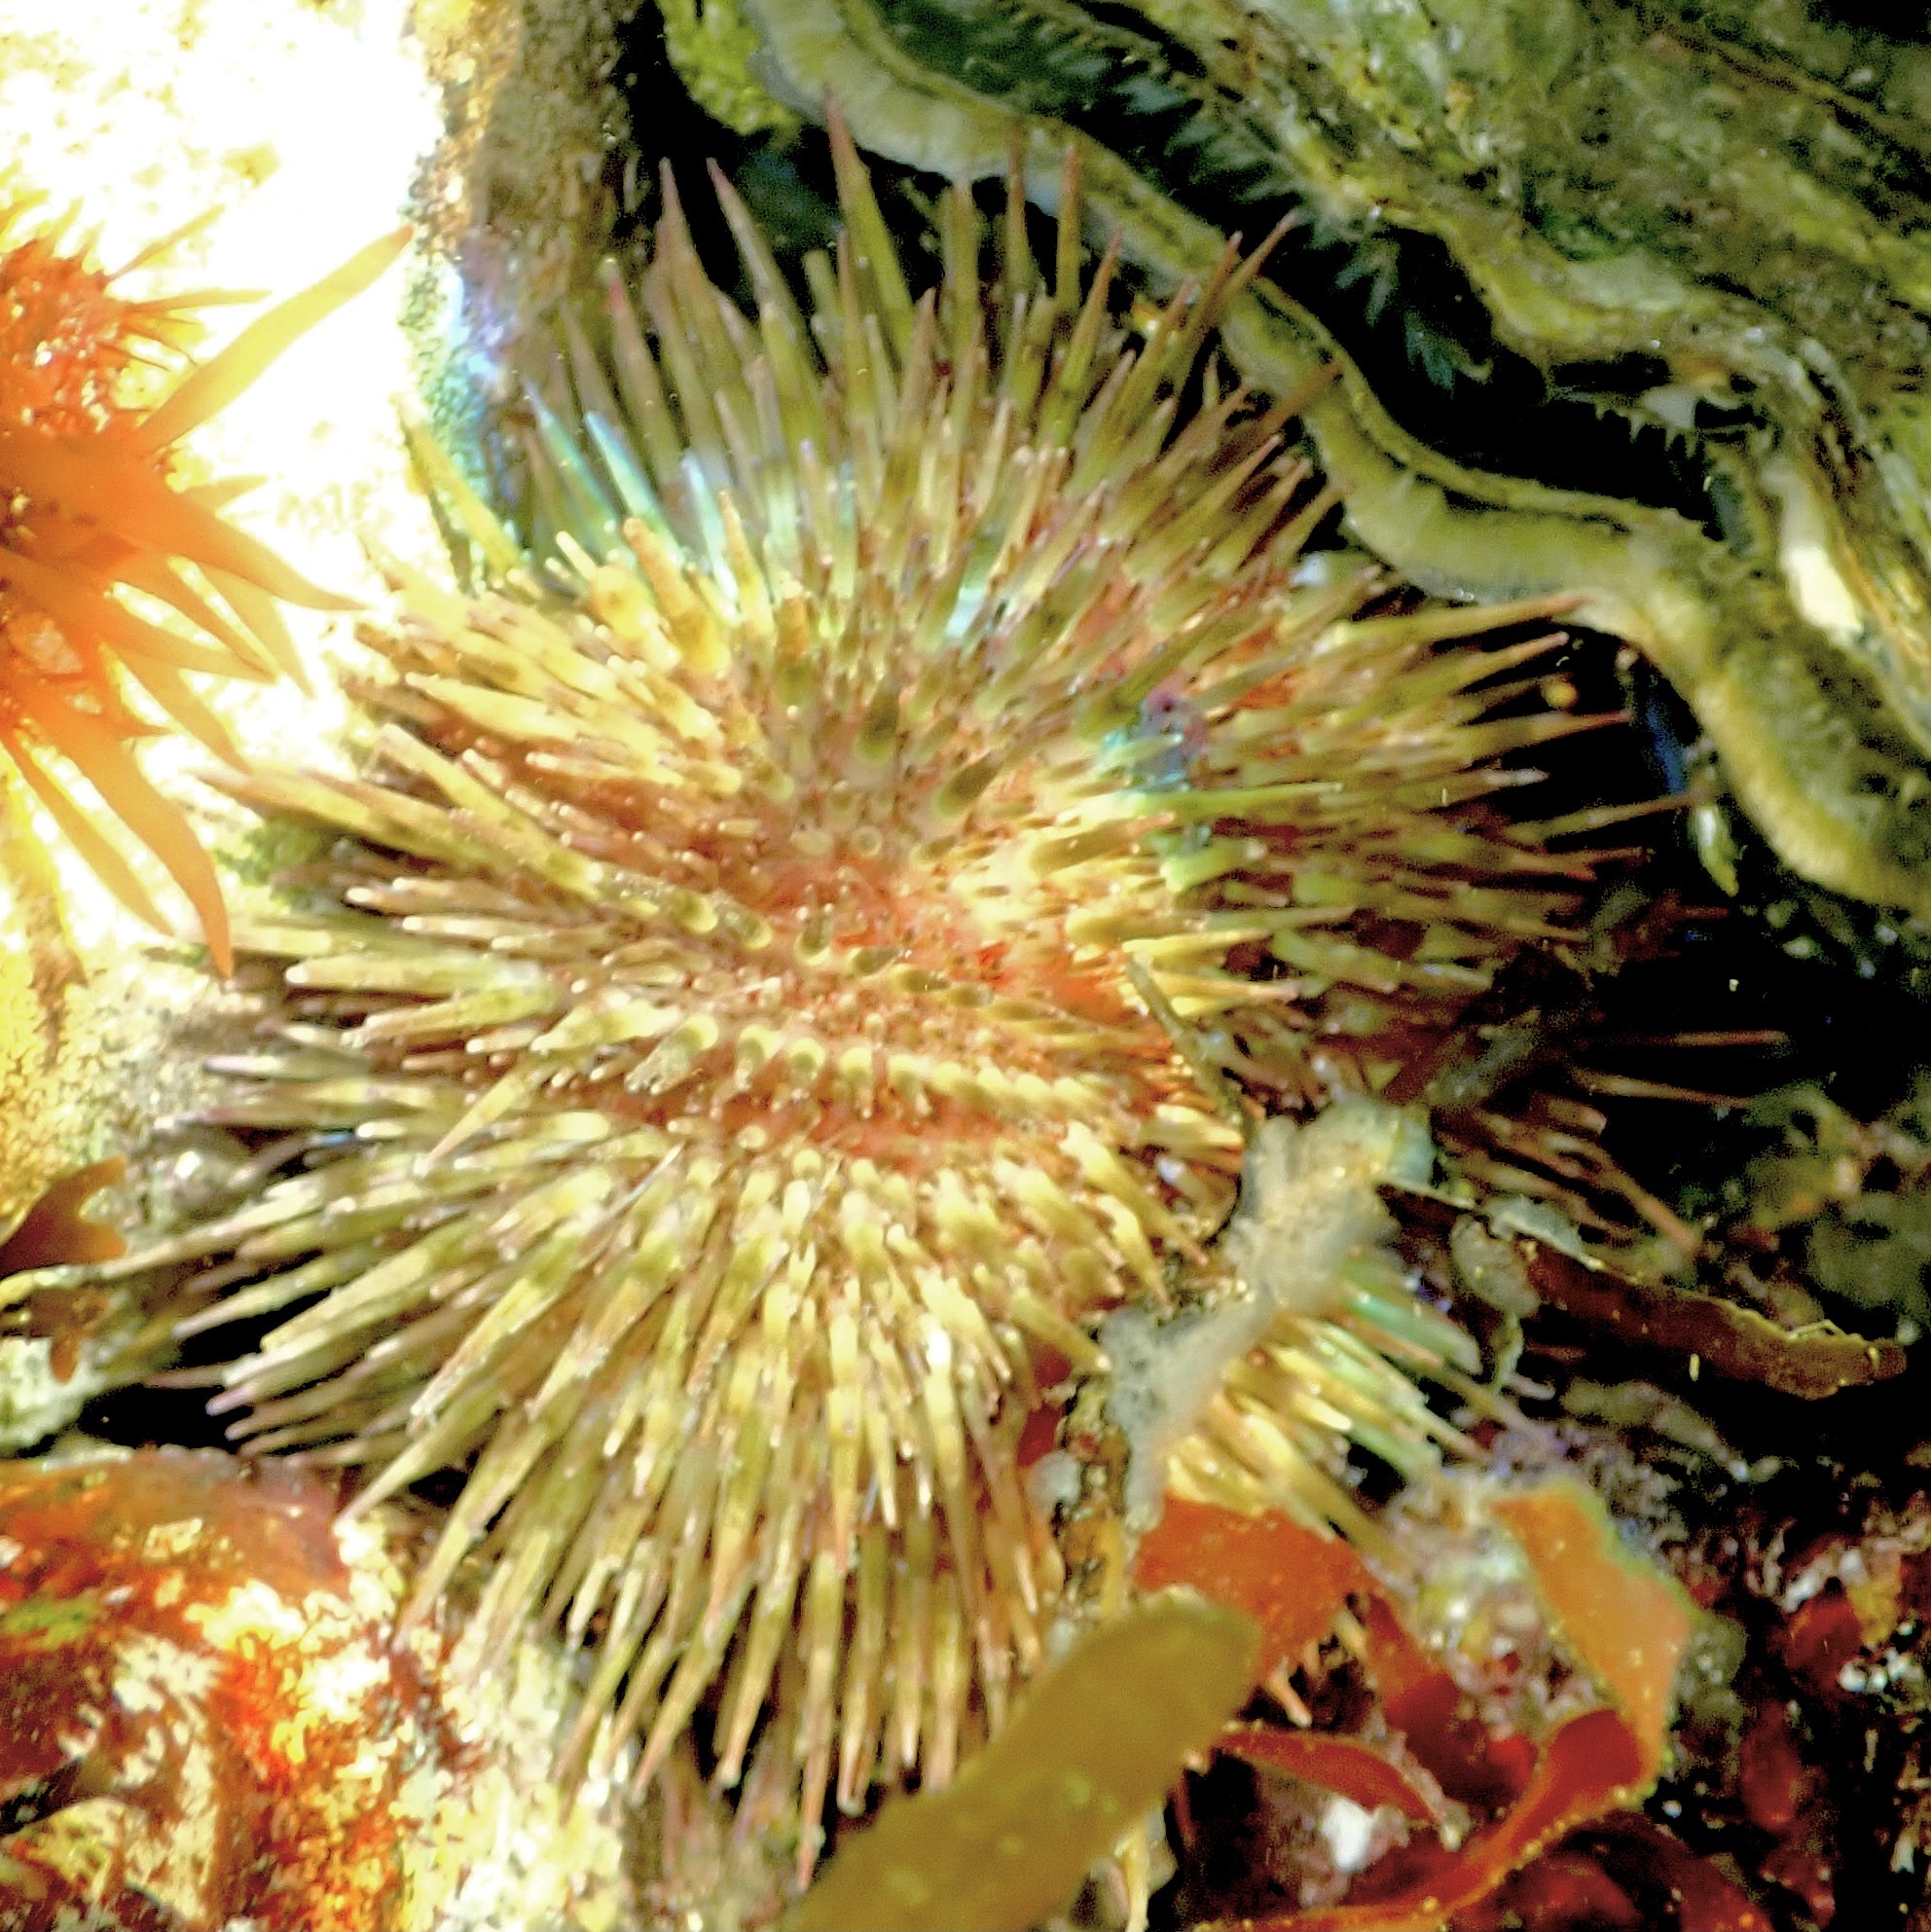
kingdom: Animalia
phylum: Echinodermata
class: Echinoidea
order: Camarodonta
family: Parechinidae
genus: Psammechinus
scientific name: Psammechinus miliaris
